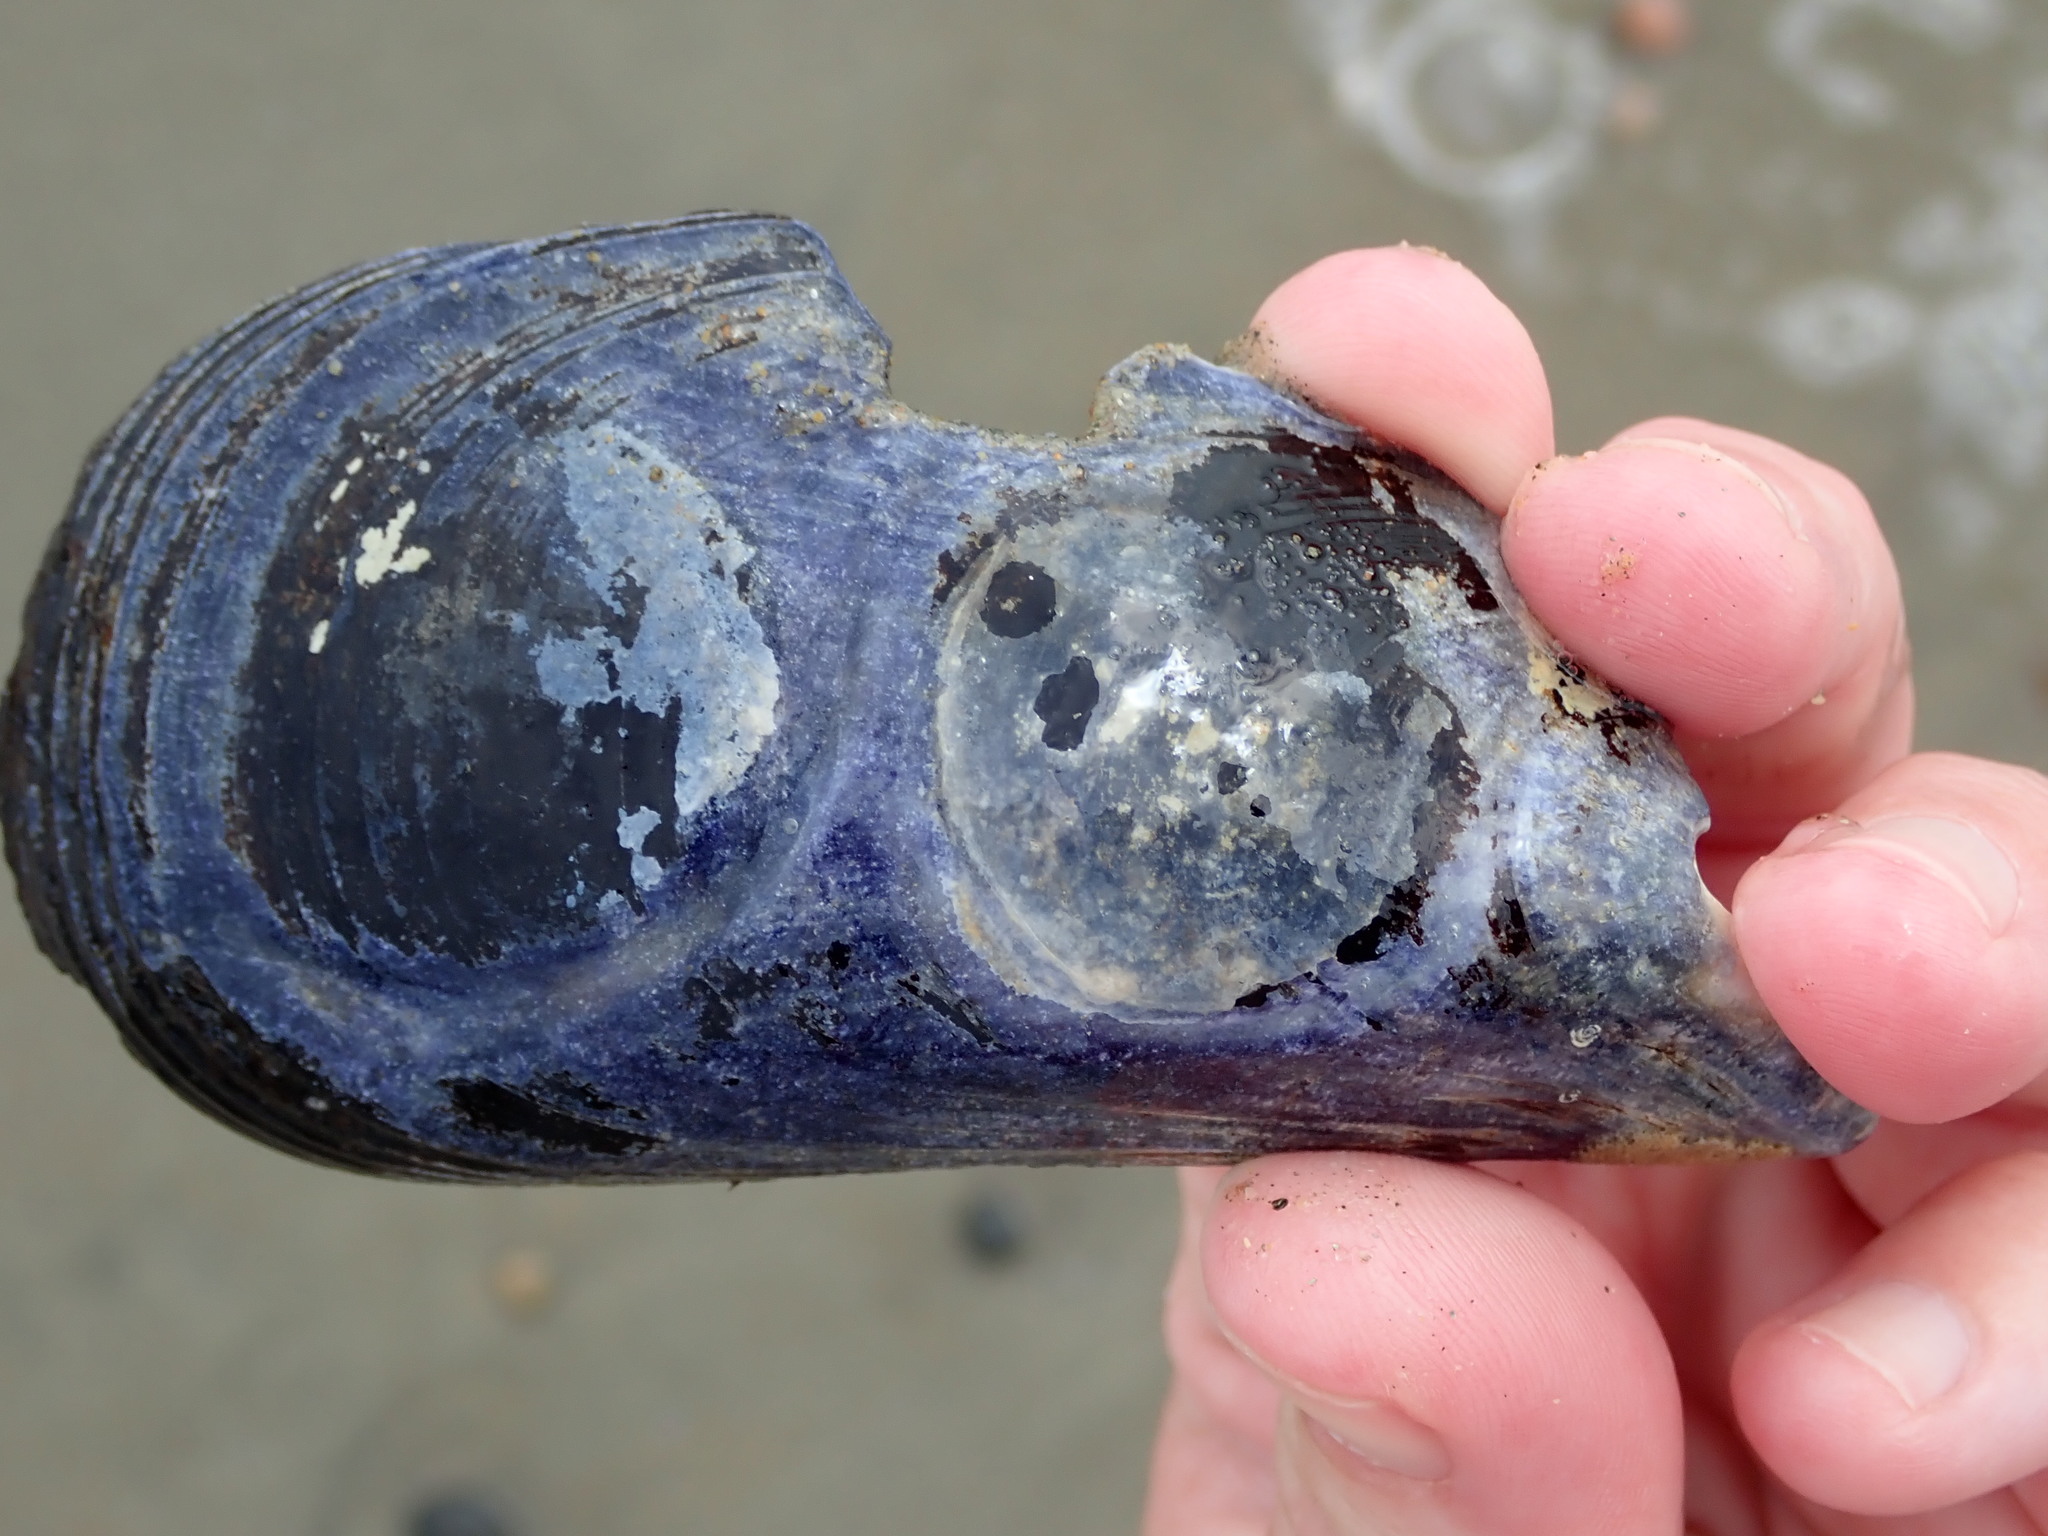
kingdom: Animalia
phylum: Mollusca
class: Bivalvia
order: Mytilida
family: Mytilidae
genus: Mytilus
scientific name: Mytilus edulis
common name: Blue mussel
